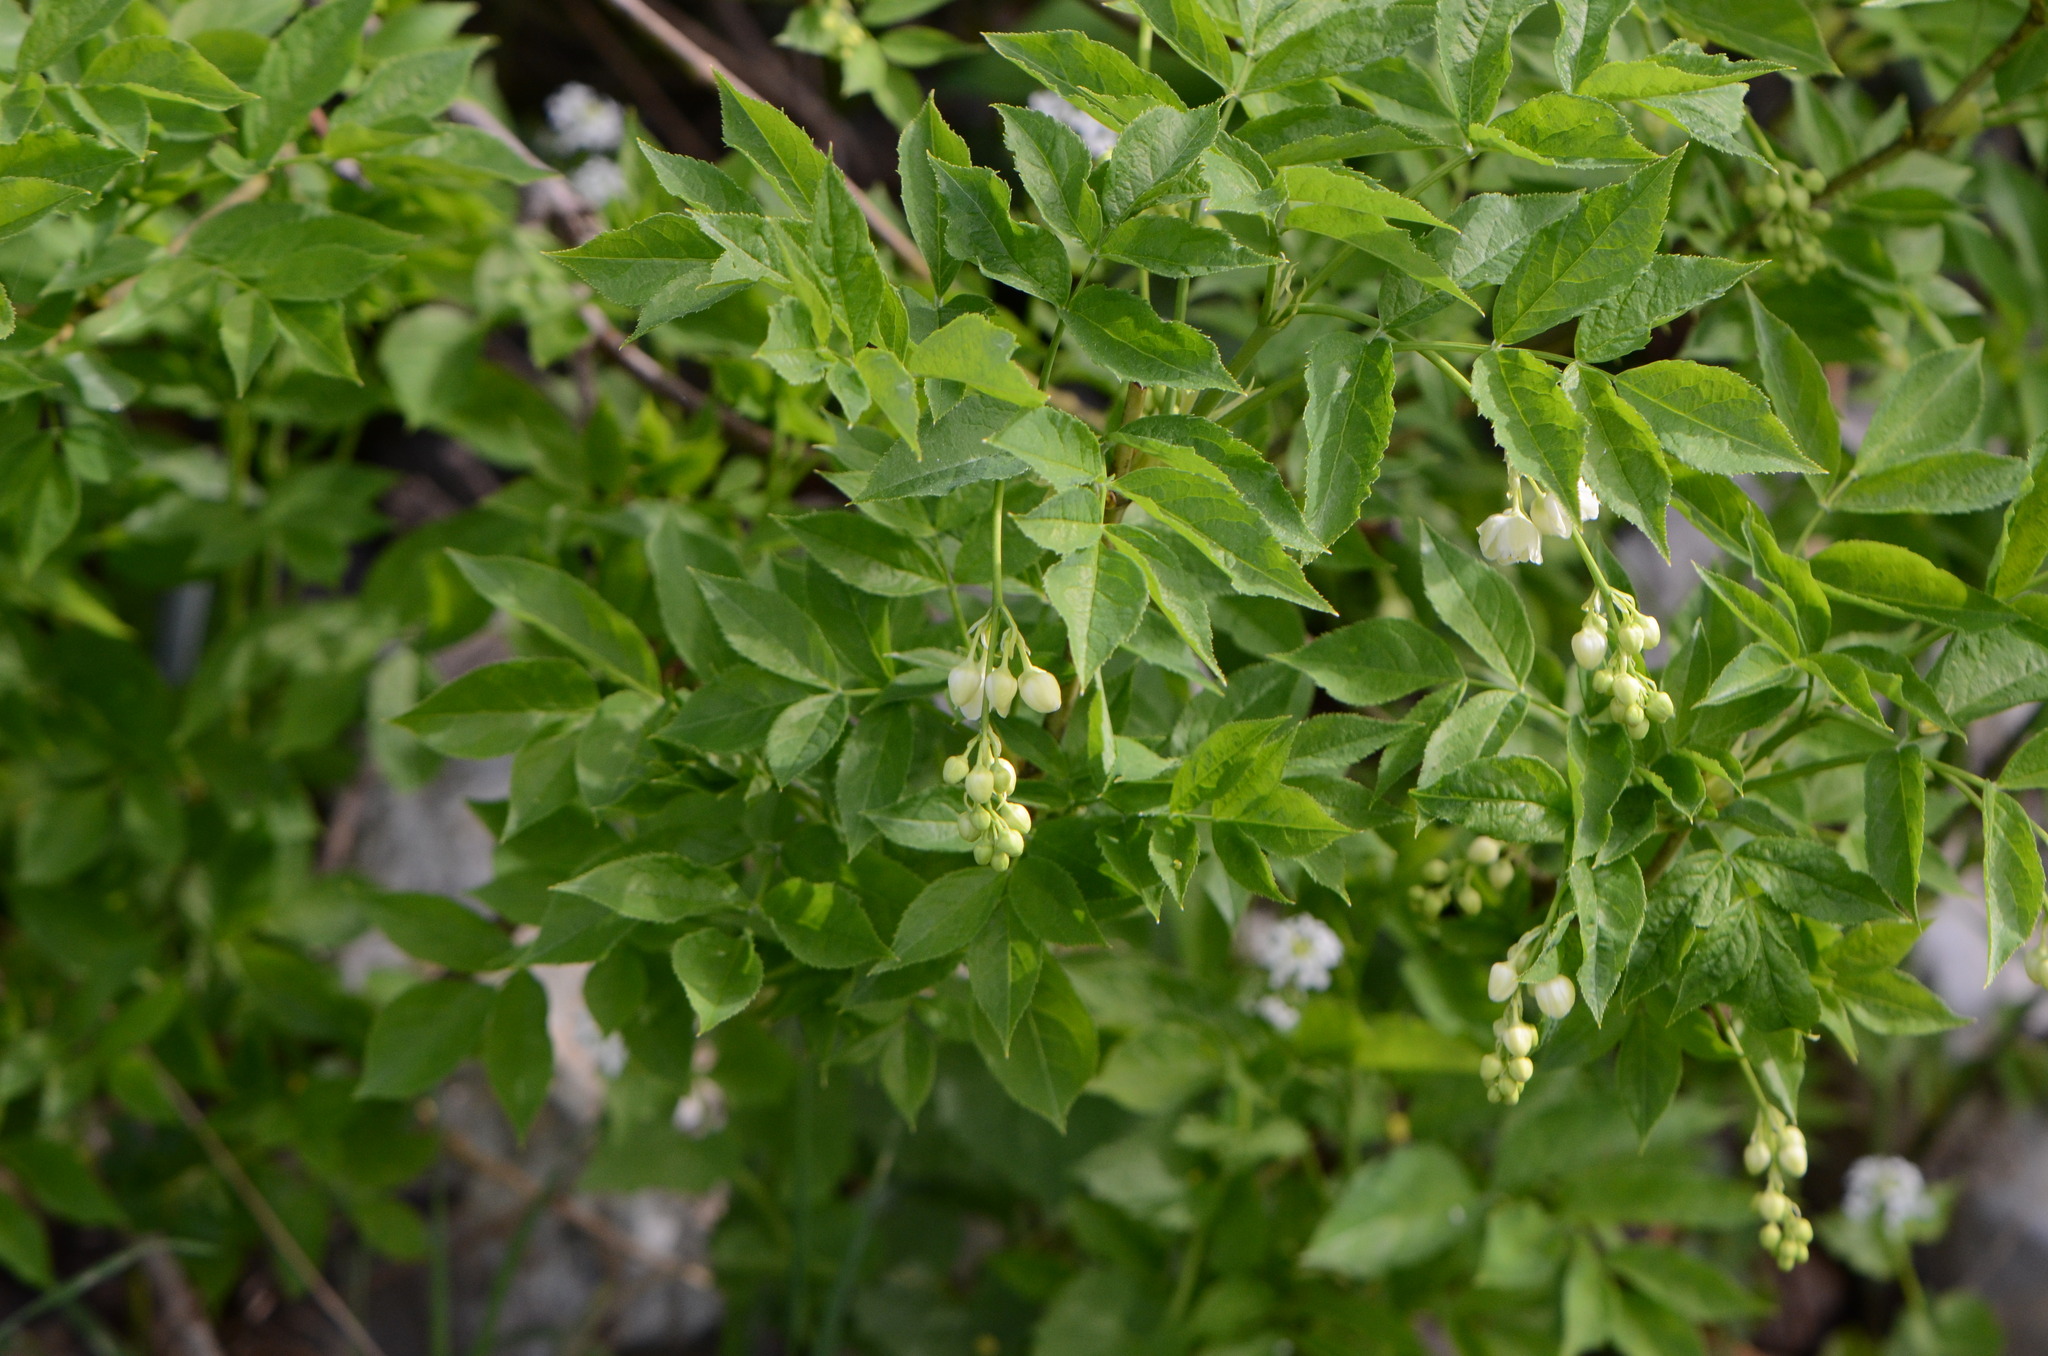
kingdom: Plantae
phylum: Tracheophyta
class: Magnoliopsida
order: Crossosomatales
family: Staphyleaceae
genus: Staphylea
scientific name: Staphylea pinnata
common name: Bladdernut
